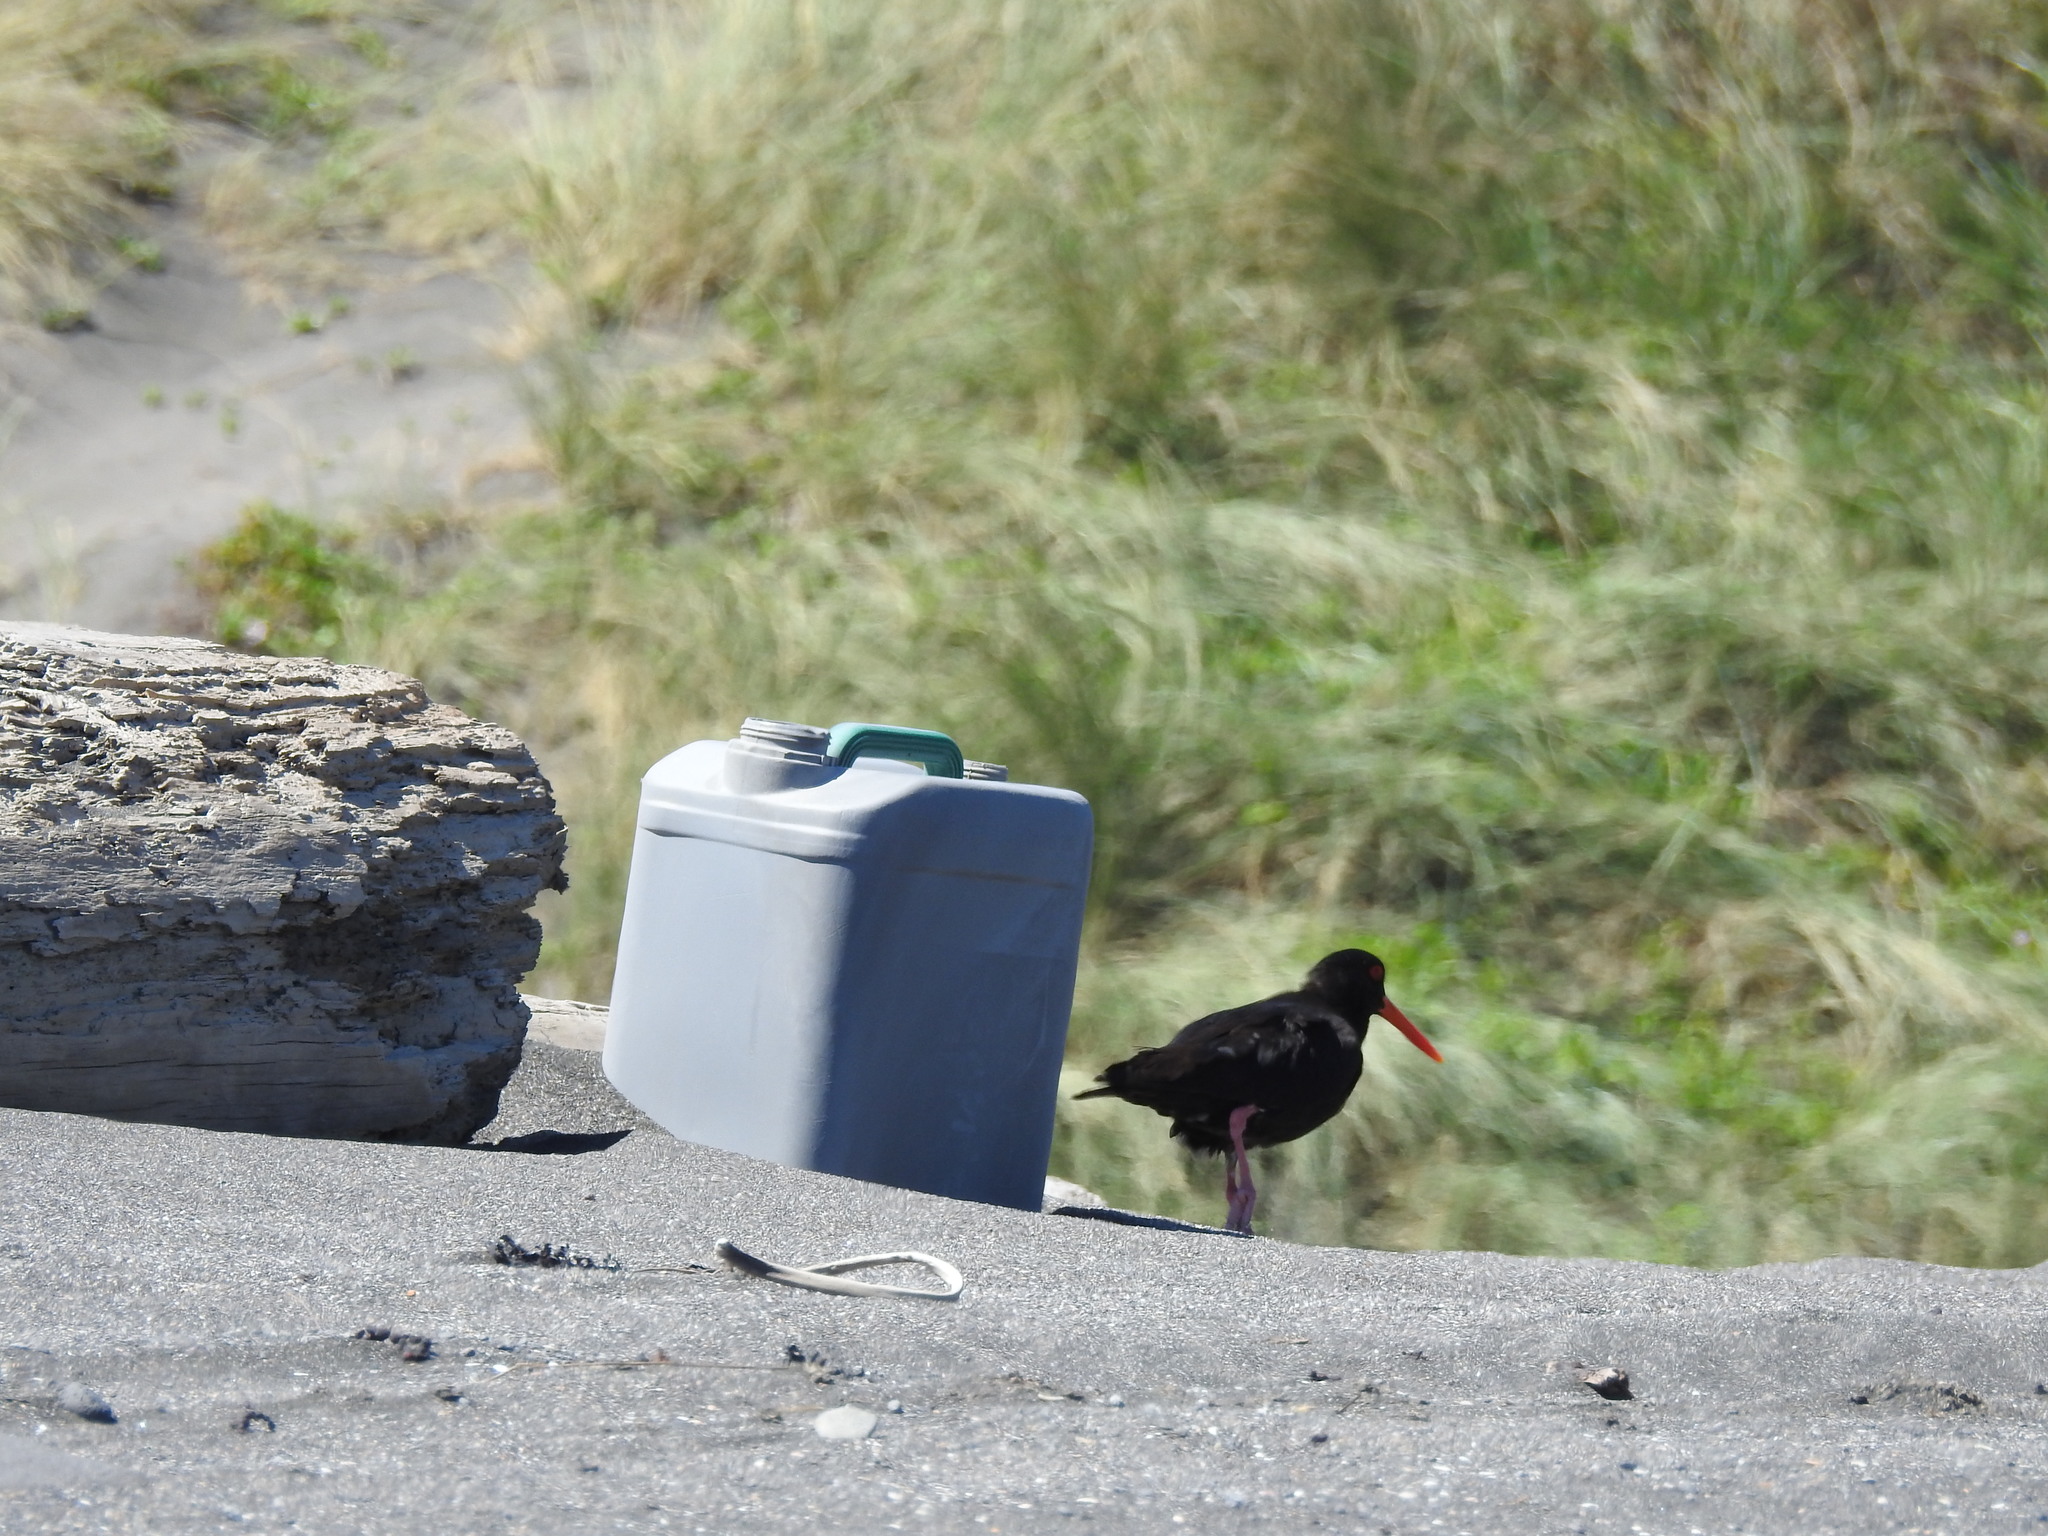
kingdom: Animalia
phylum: Chordata
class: Aves
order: Charadriiformes
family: Haematopodidae
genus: Haematopus
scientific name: Haematopus unicolor
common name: Variable oystercatcher
